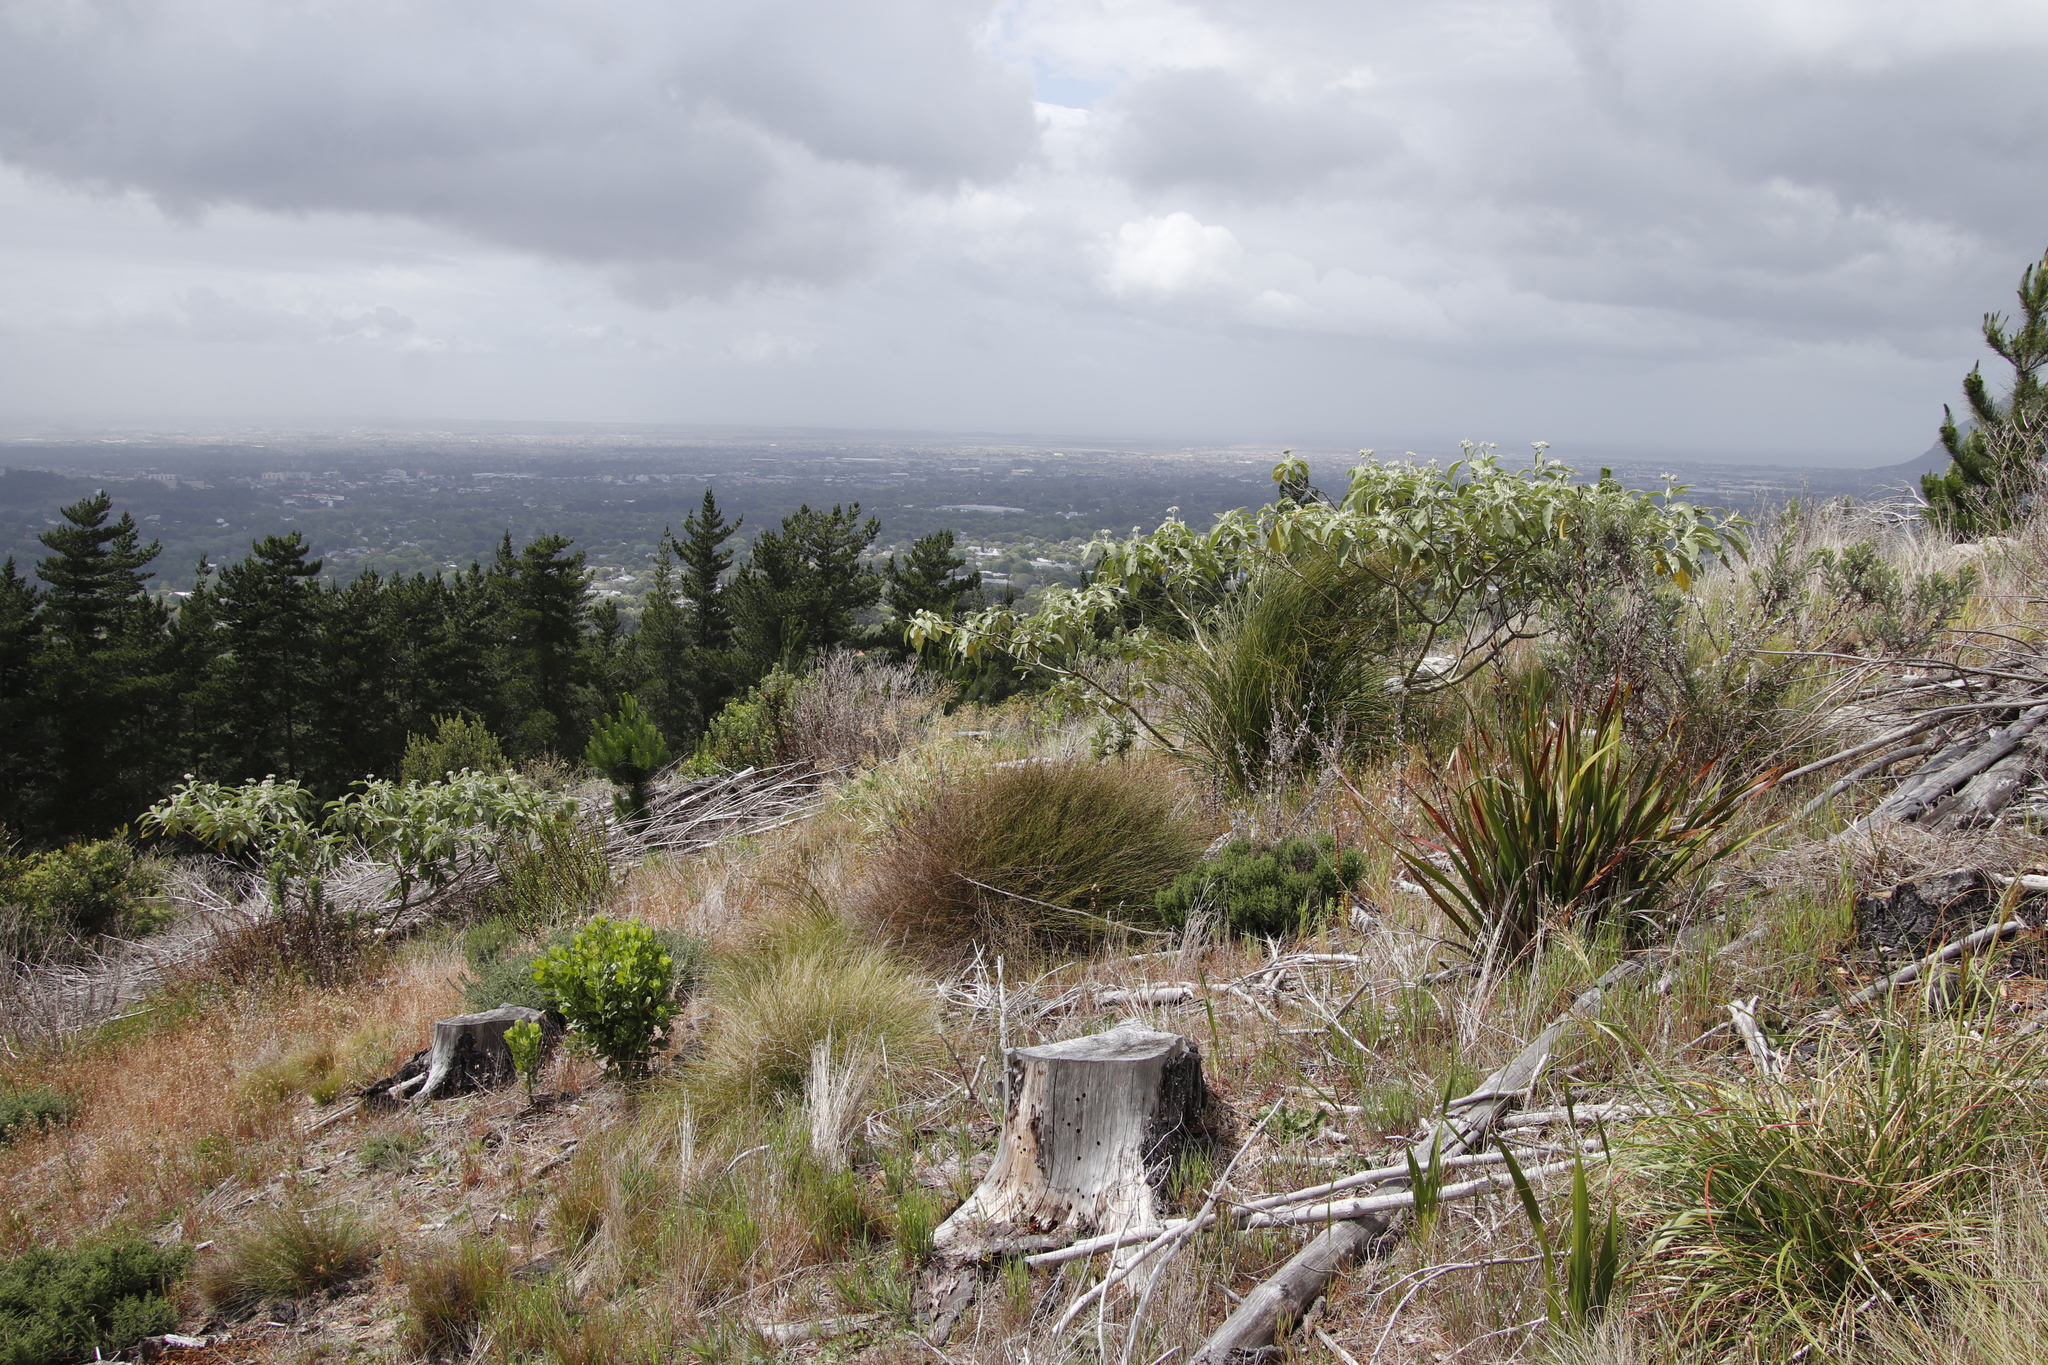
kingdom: Plantae
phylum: Tracheophyta
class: Magnoliopsida
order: Solanales
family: Solanaceae
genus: Solanum
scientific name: Solanum mauritianum
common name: Earleaf nightshade
